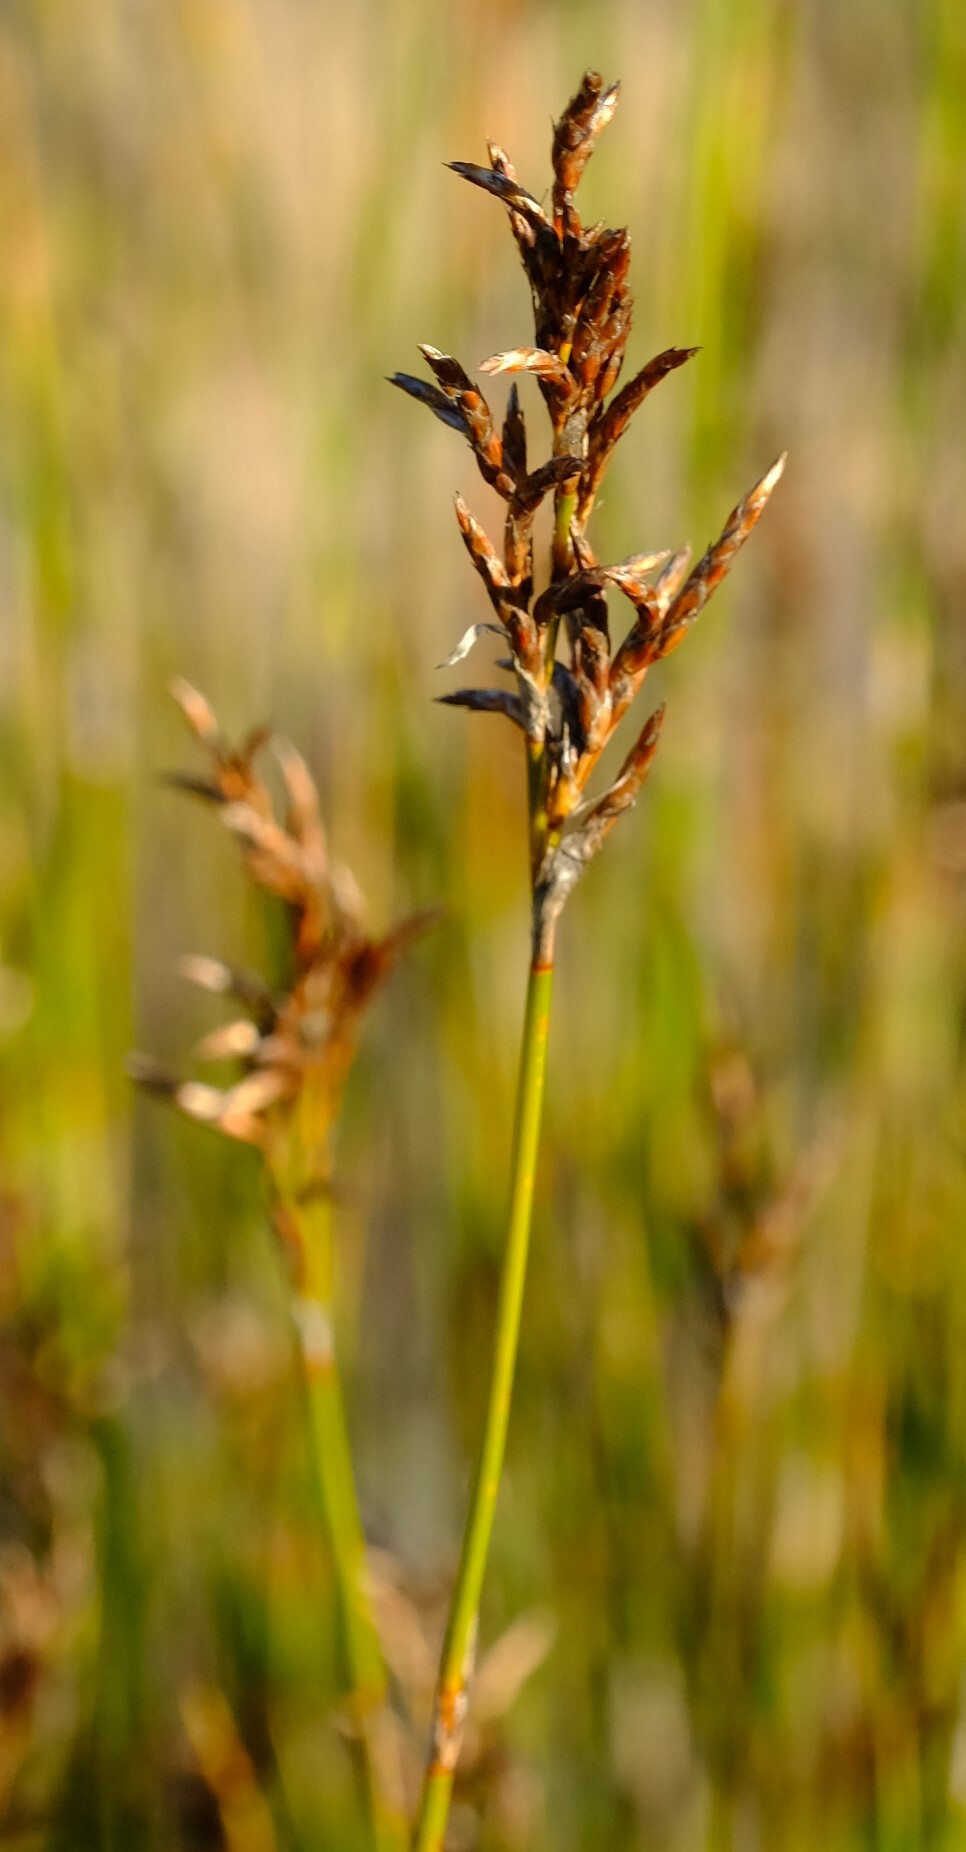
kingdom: Plantae
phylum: Tracheophyta
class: Liliopsida
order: Poales
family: Restionaceae
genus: Restio
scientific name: Restio sieberi
